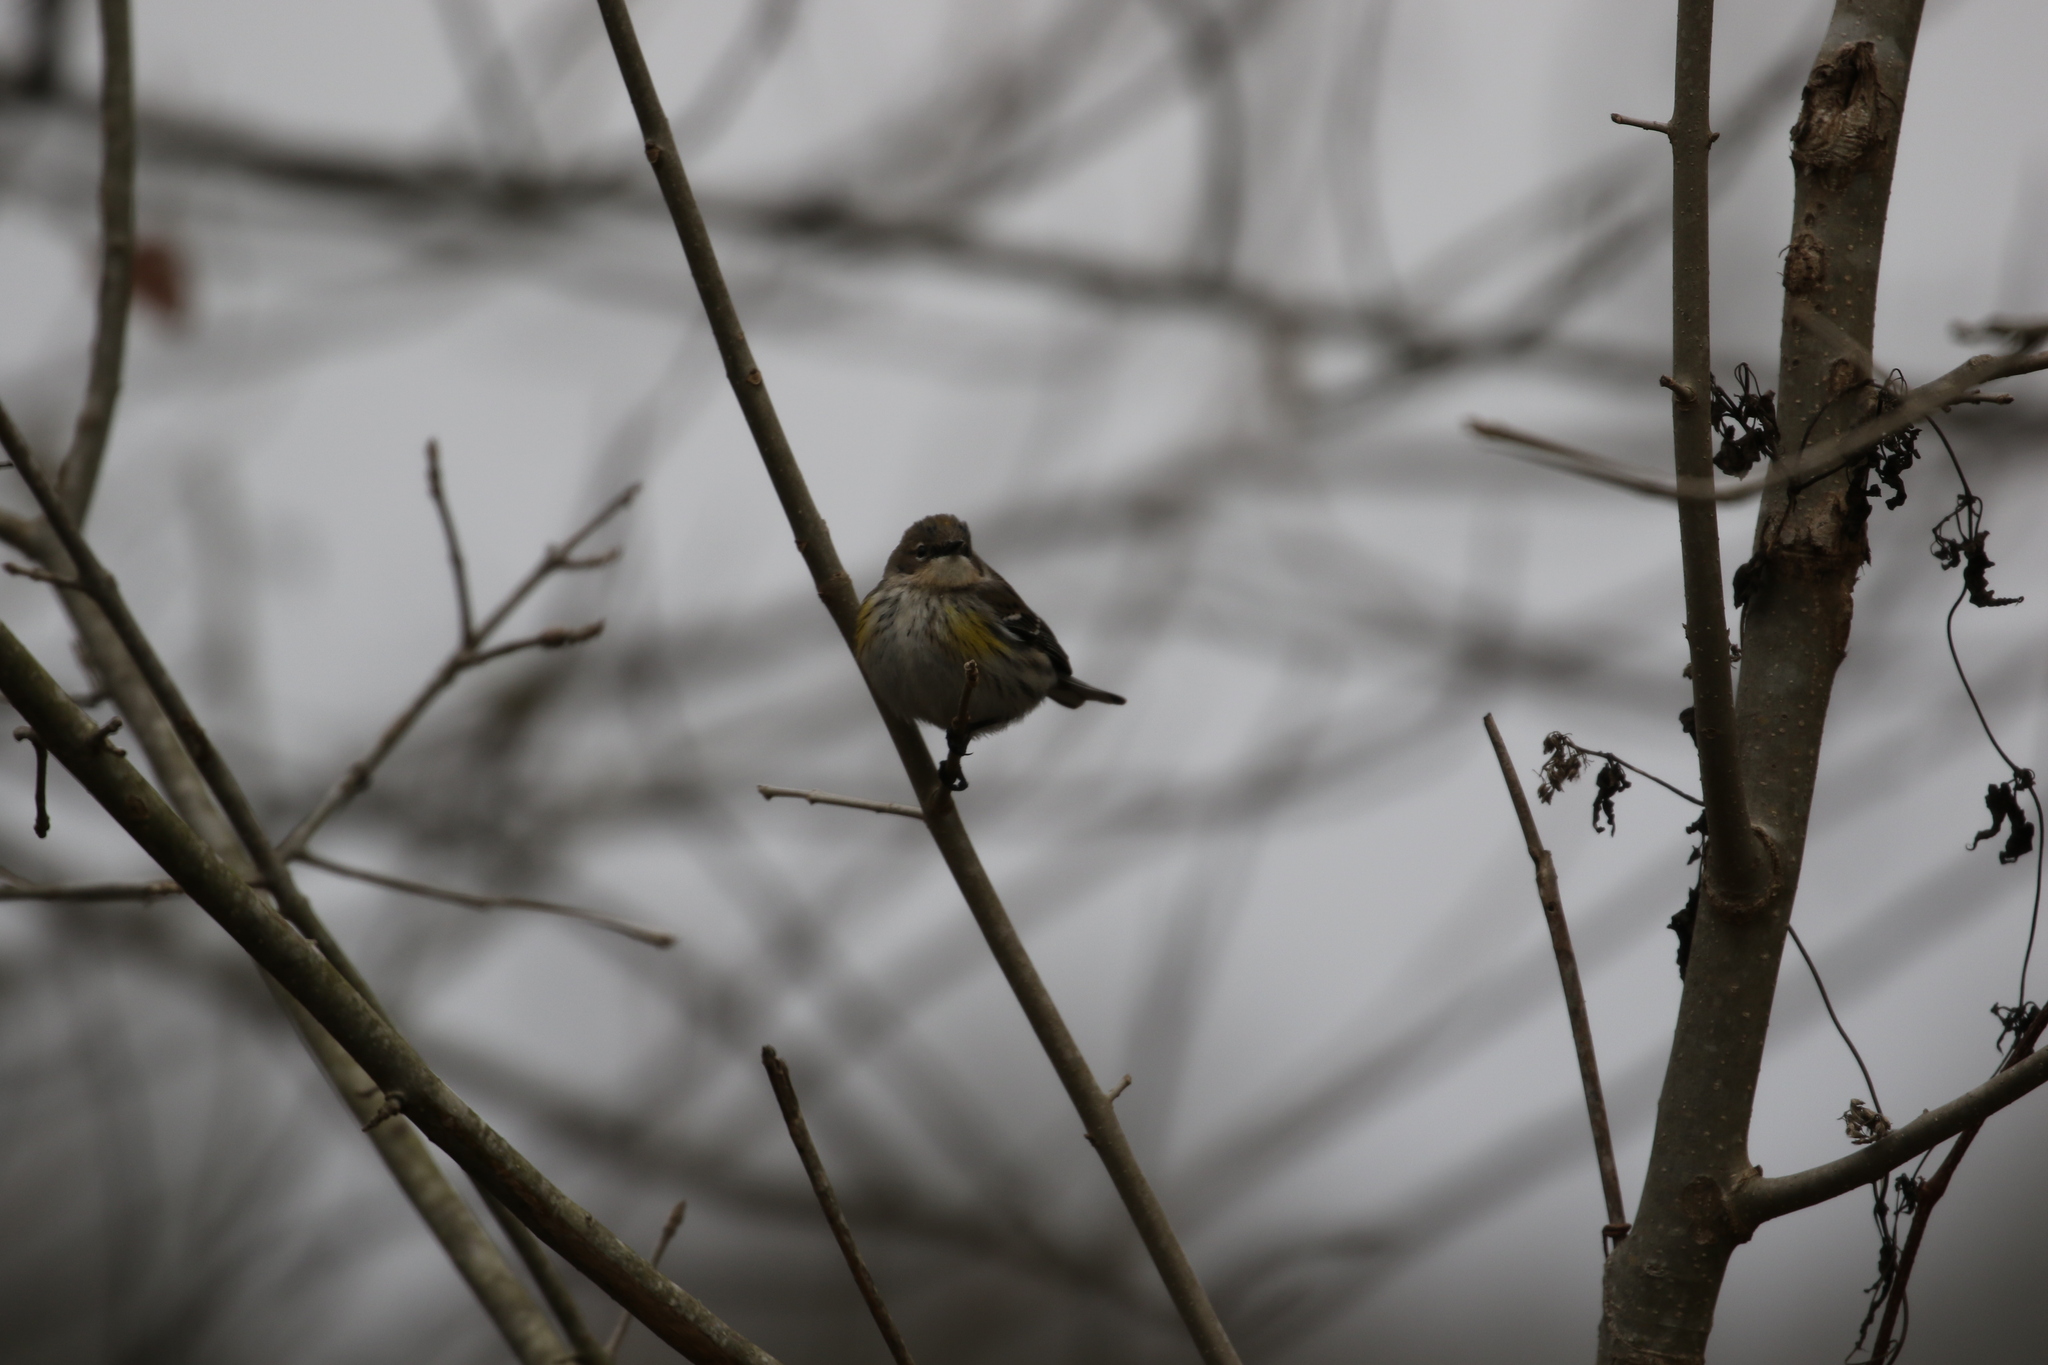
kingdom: Animalia
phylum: Chordata
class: Aves
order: Passeriformes
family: Parulidae
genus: Setophaga
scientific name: Setophaga coronata
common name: Myrtle warbler
